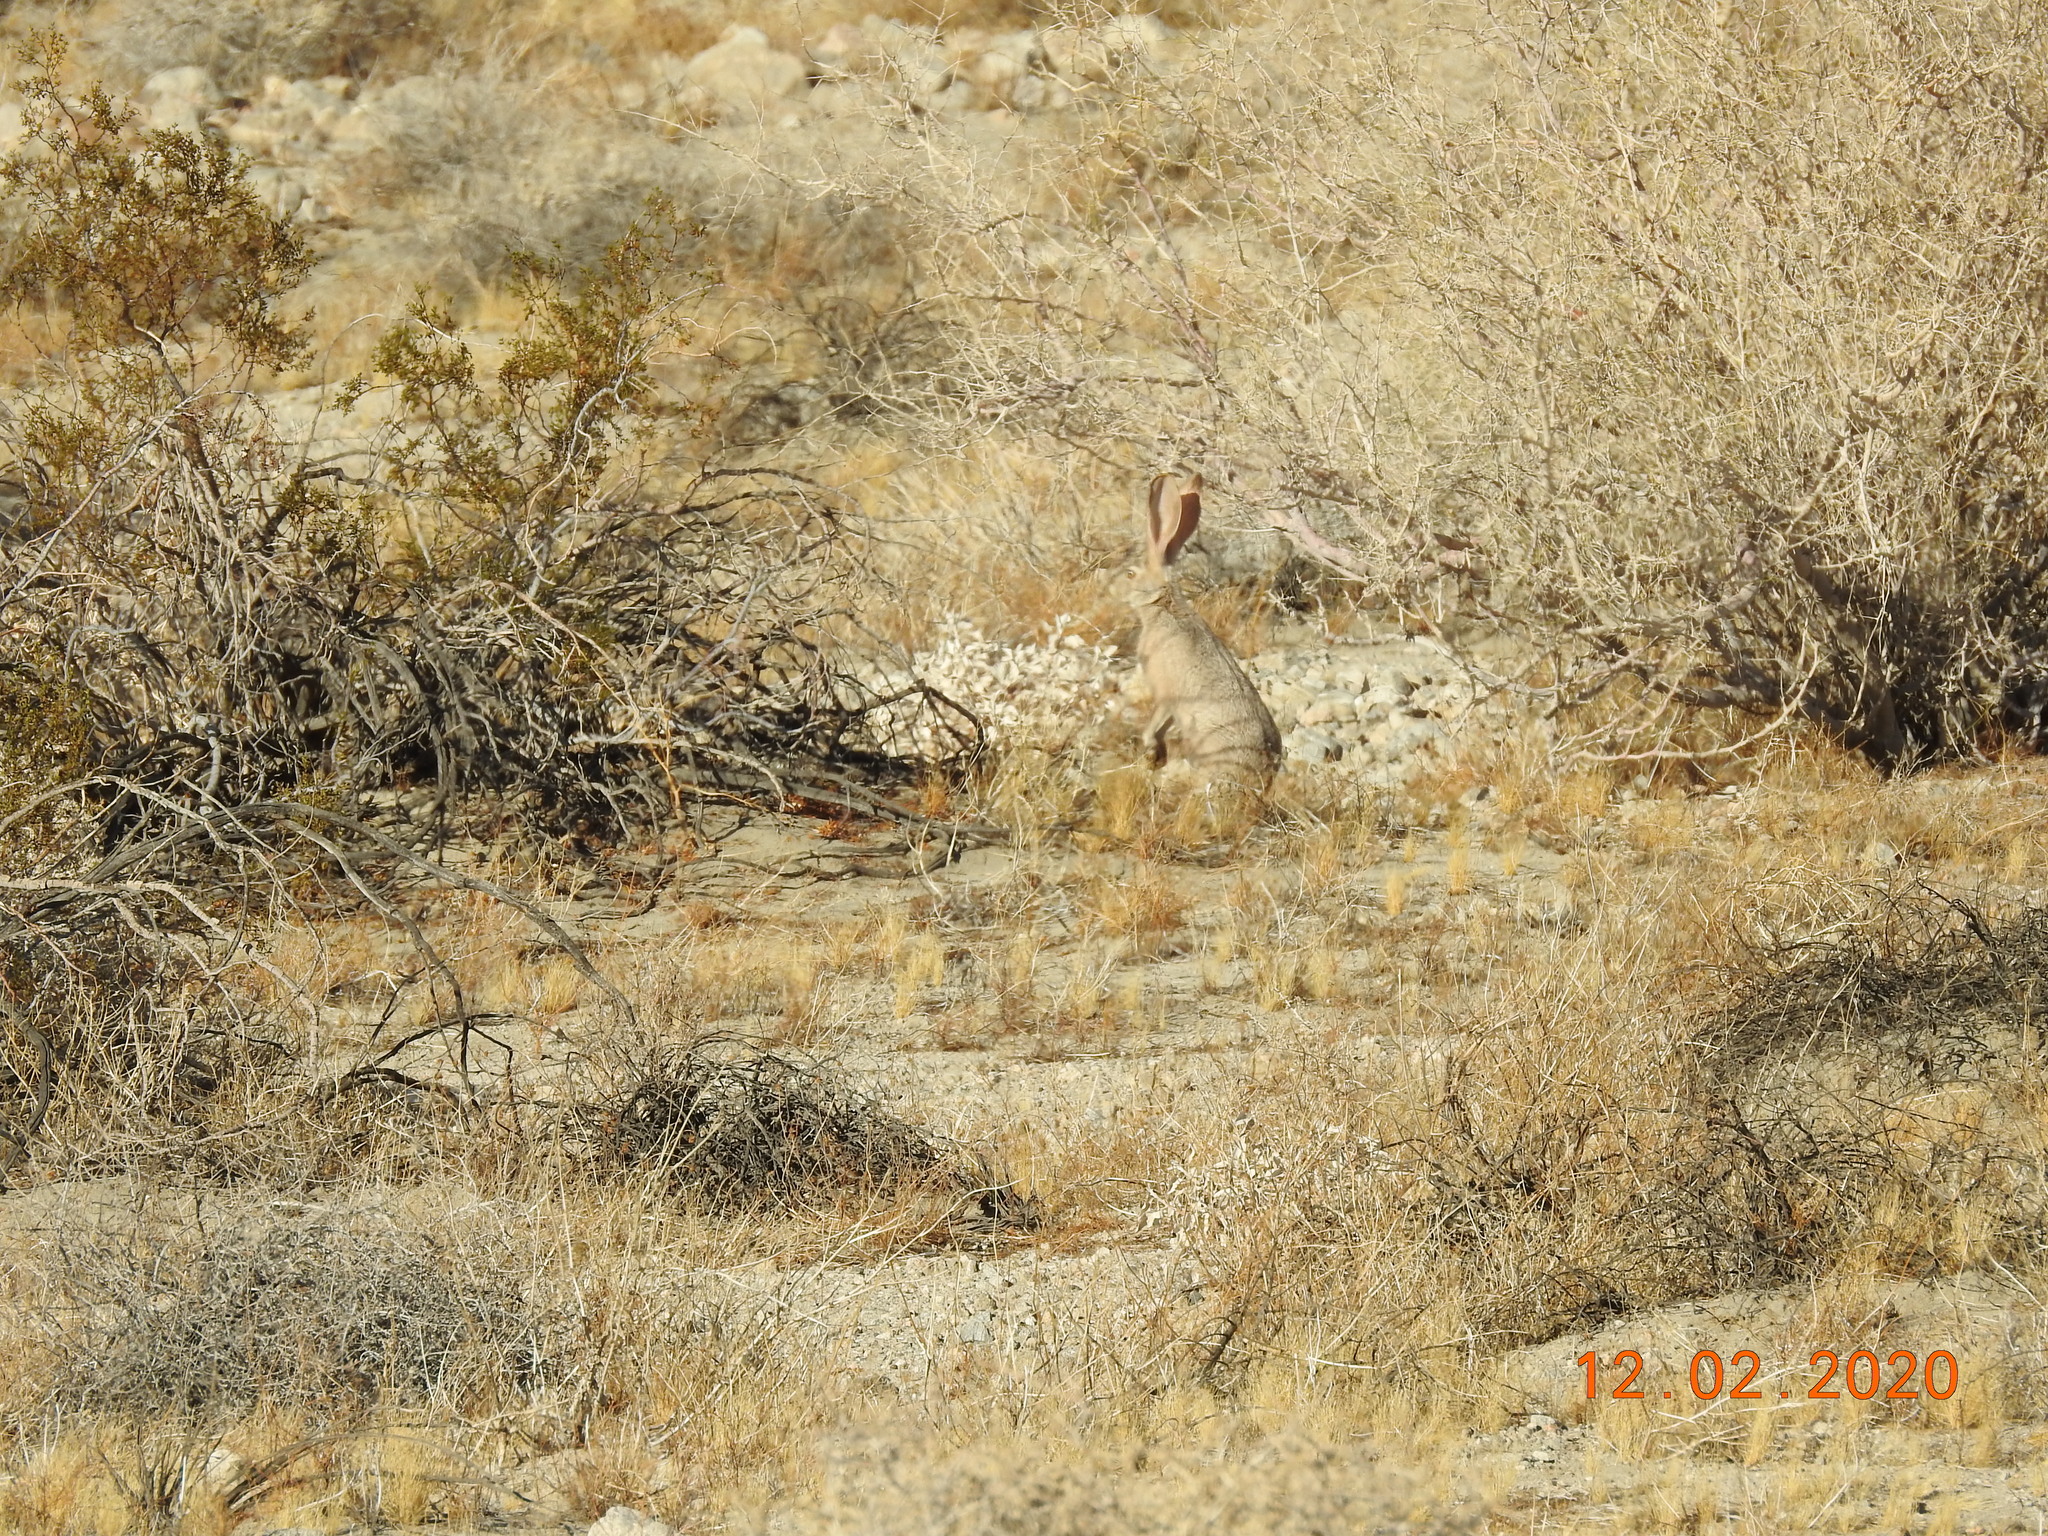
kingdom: Animalia
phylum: Chordata
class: Mammalia
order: Lagomorpha
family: Leporidae
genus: Lepus
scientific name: Lepus californicus
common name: Black-tailed jackrabbit
